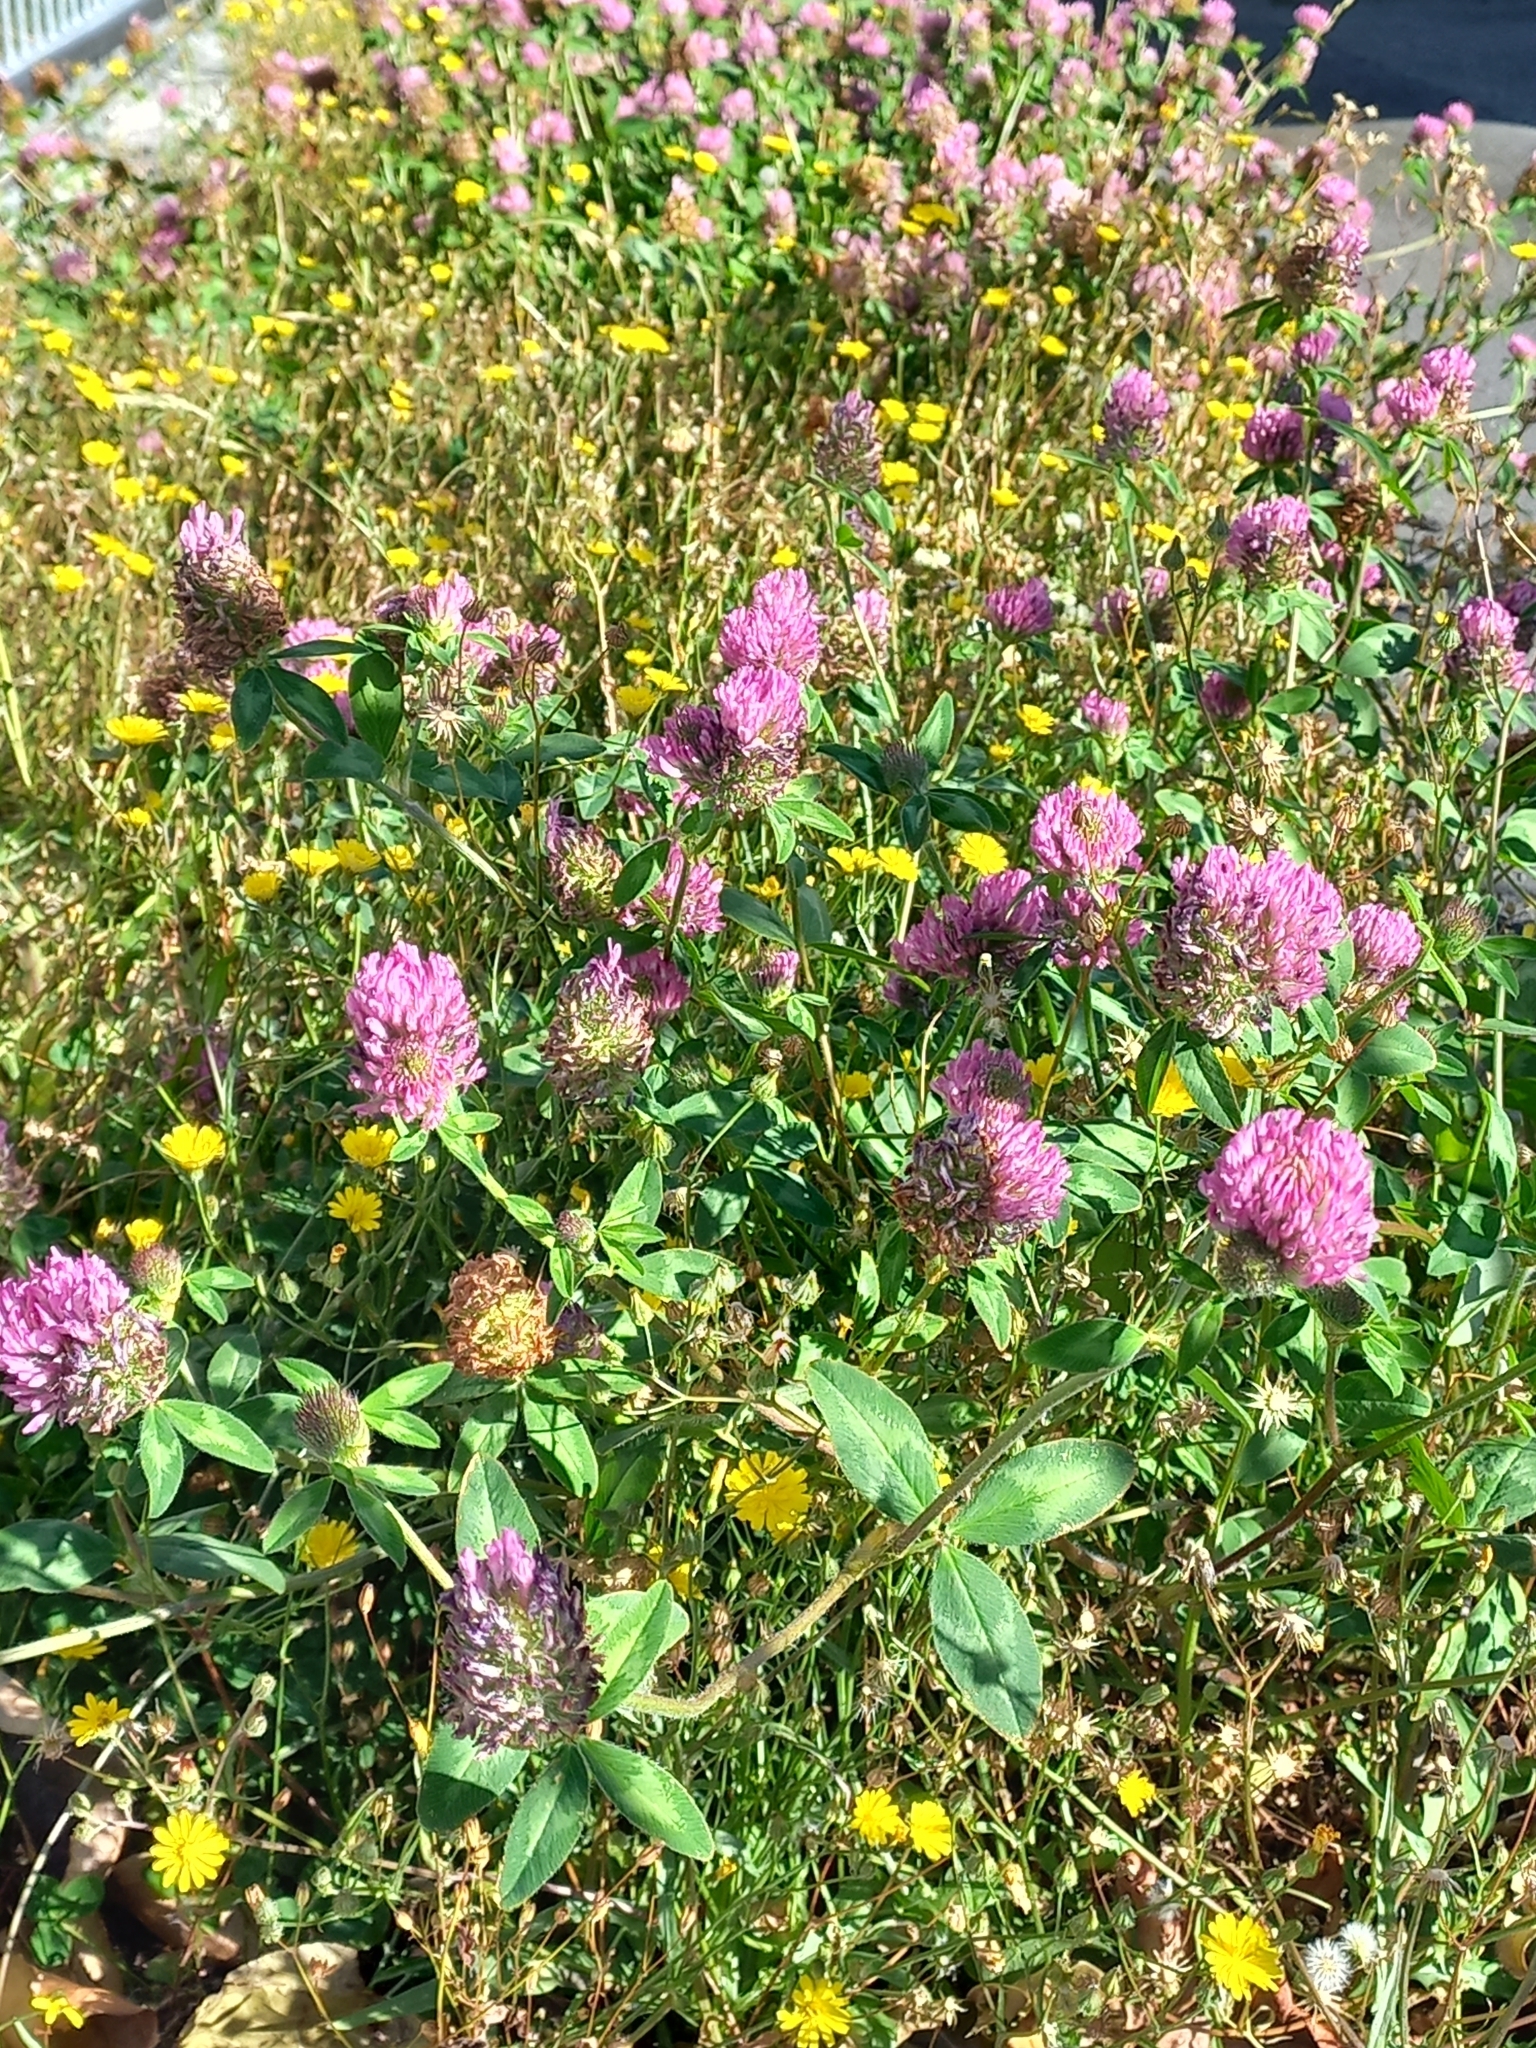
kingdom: Plantae
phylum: Tracheophyta
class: Magnoliopsida
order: Fabales
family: Fabaceae
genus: Trifolium
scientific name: Trifolium pratense
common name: Red clover
